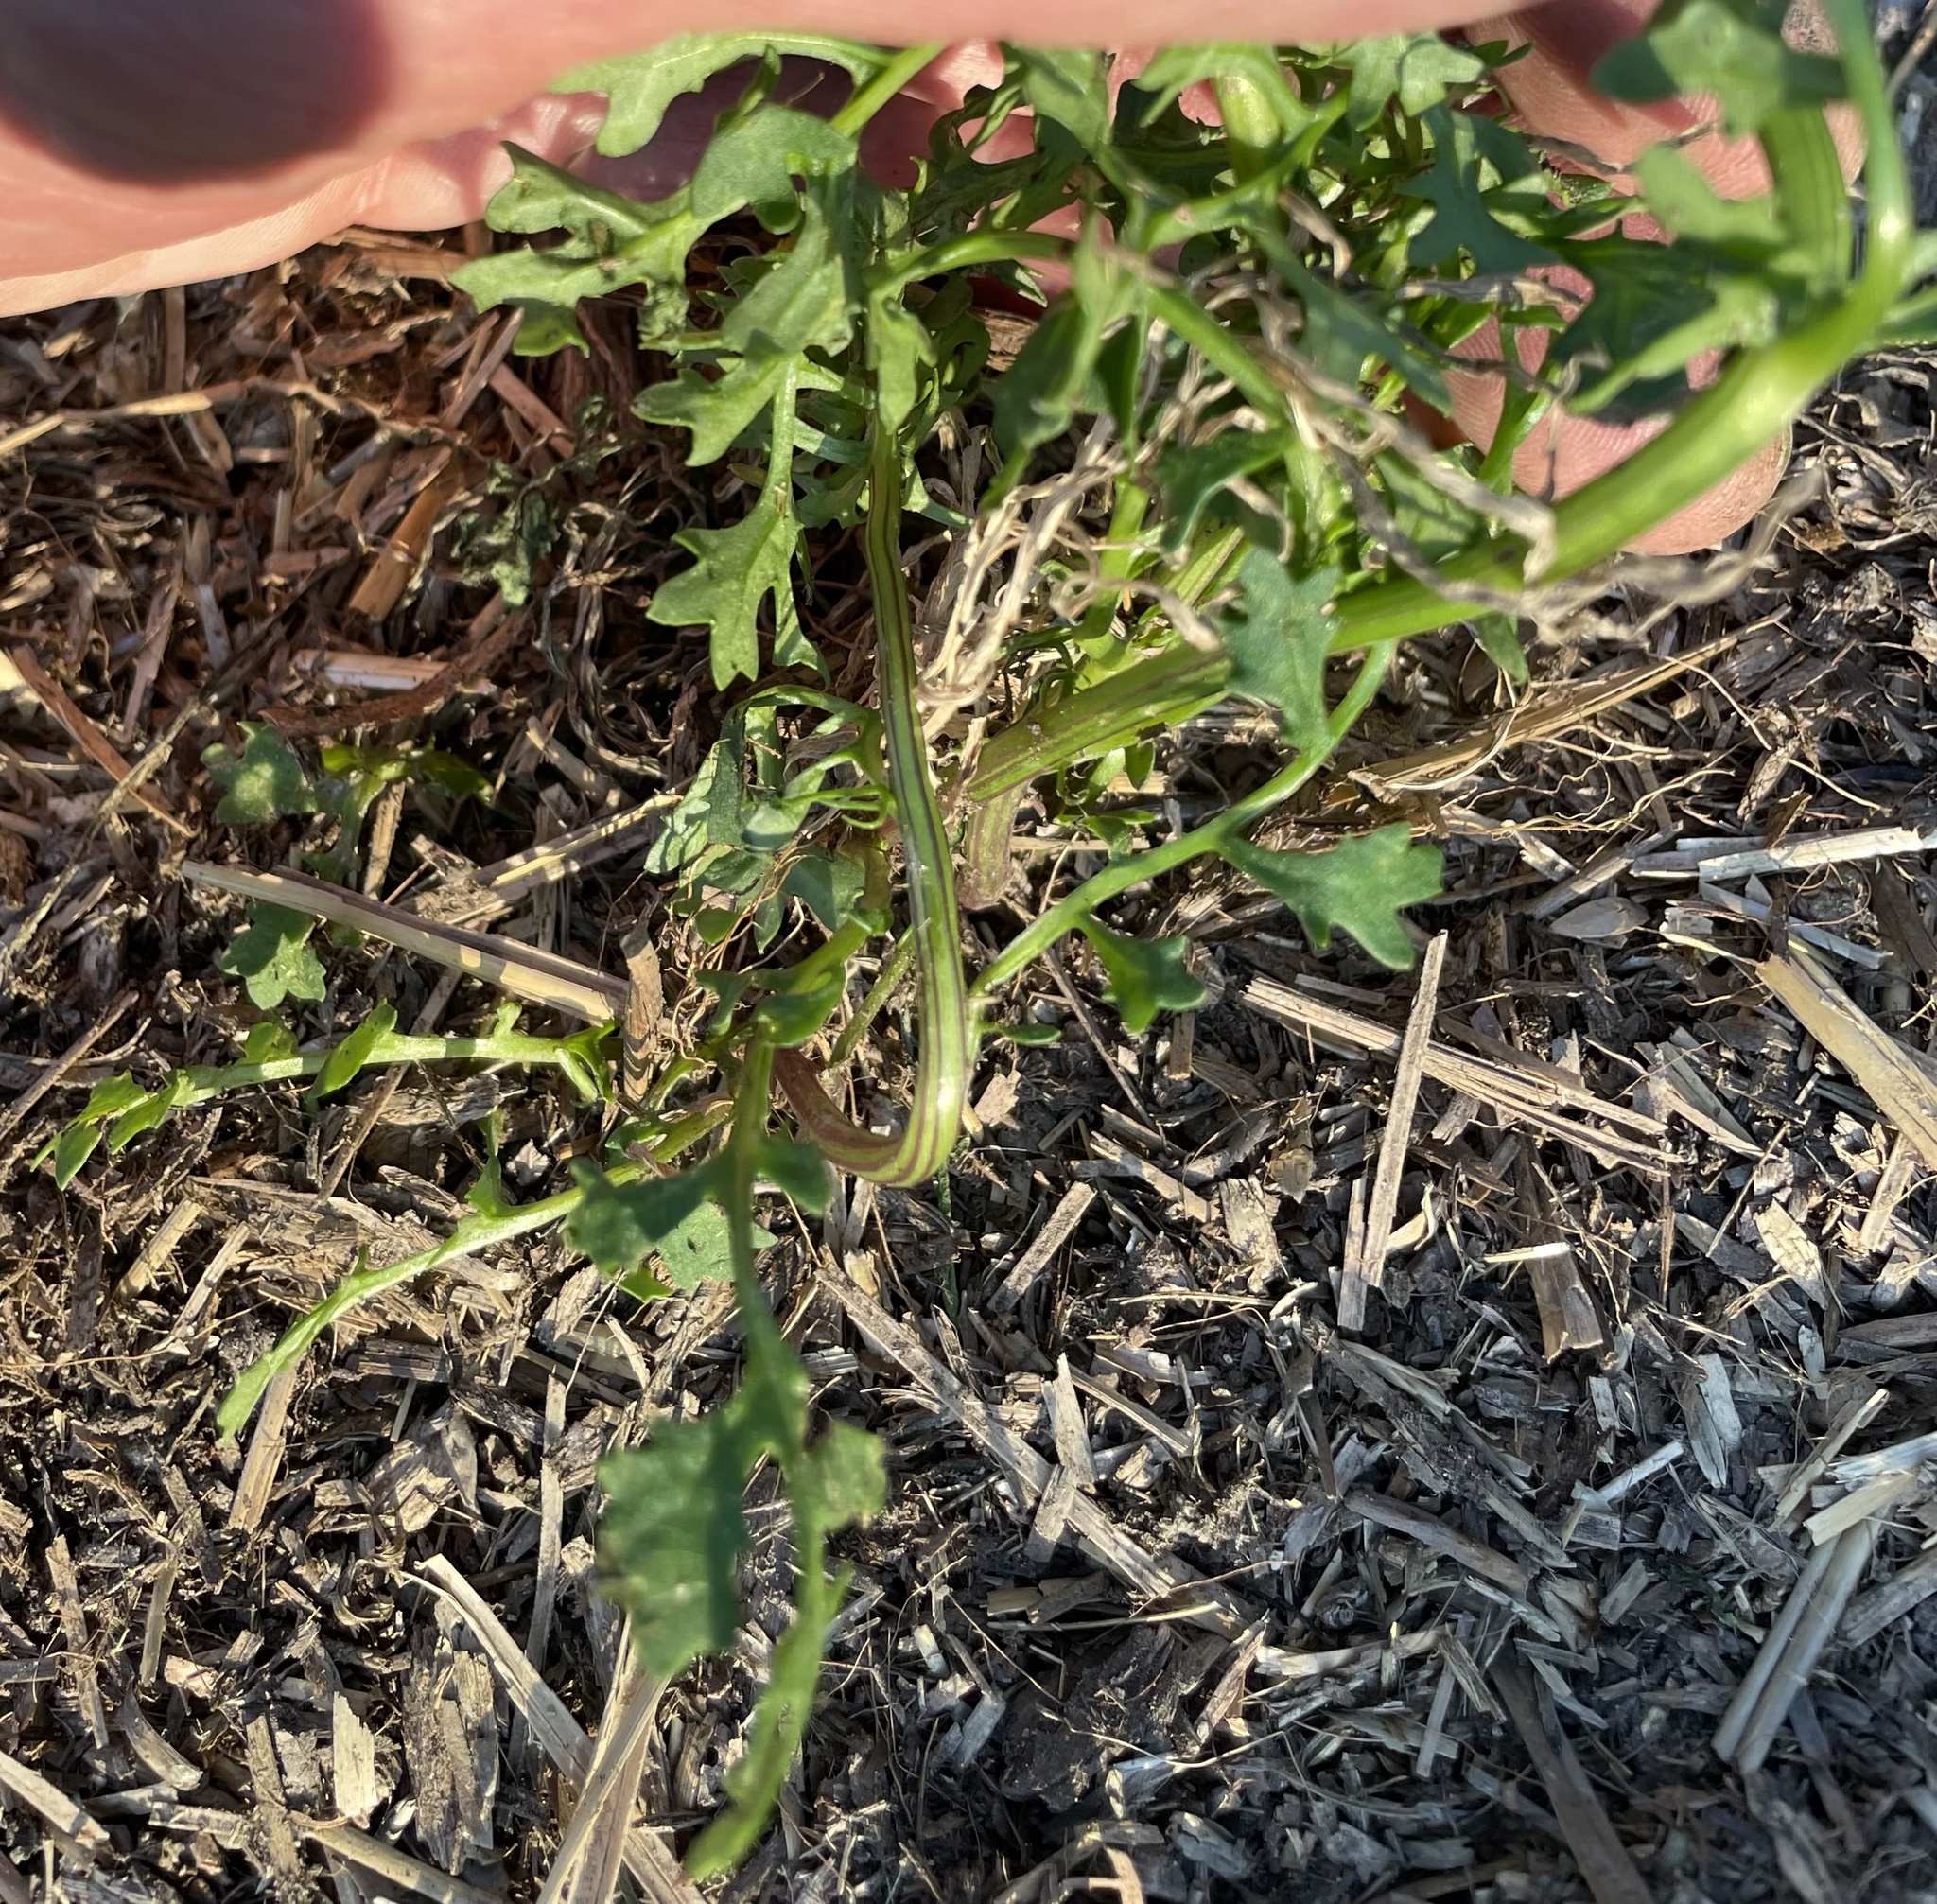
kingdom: Plantae
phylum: Tracheophyta
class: Magnoliopsida
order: Asterales
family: Asteraceae
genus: Packera
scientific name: Packera tampicana
